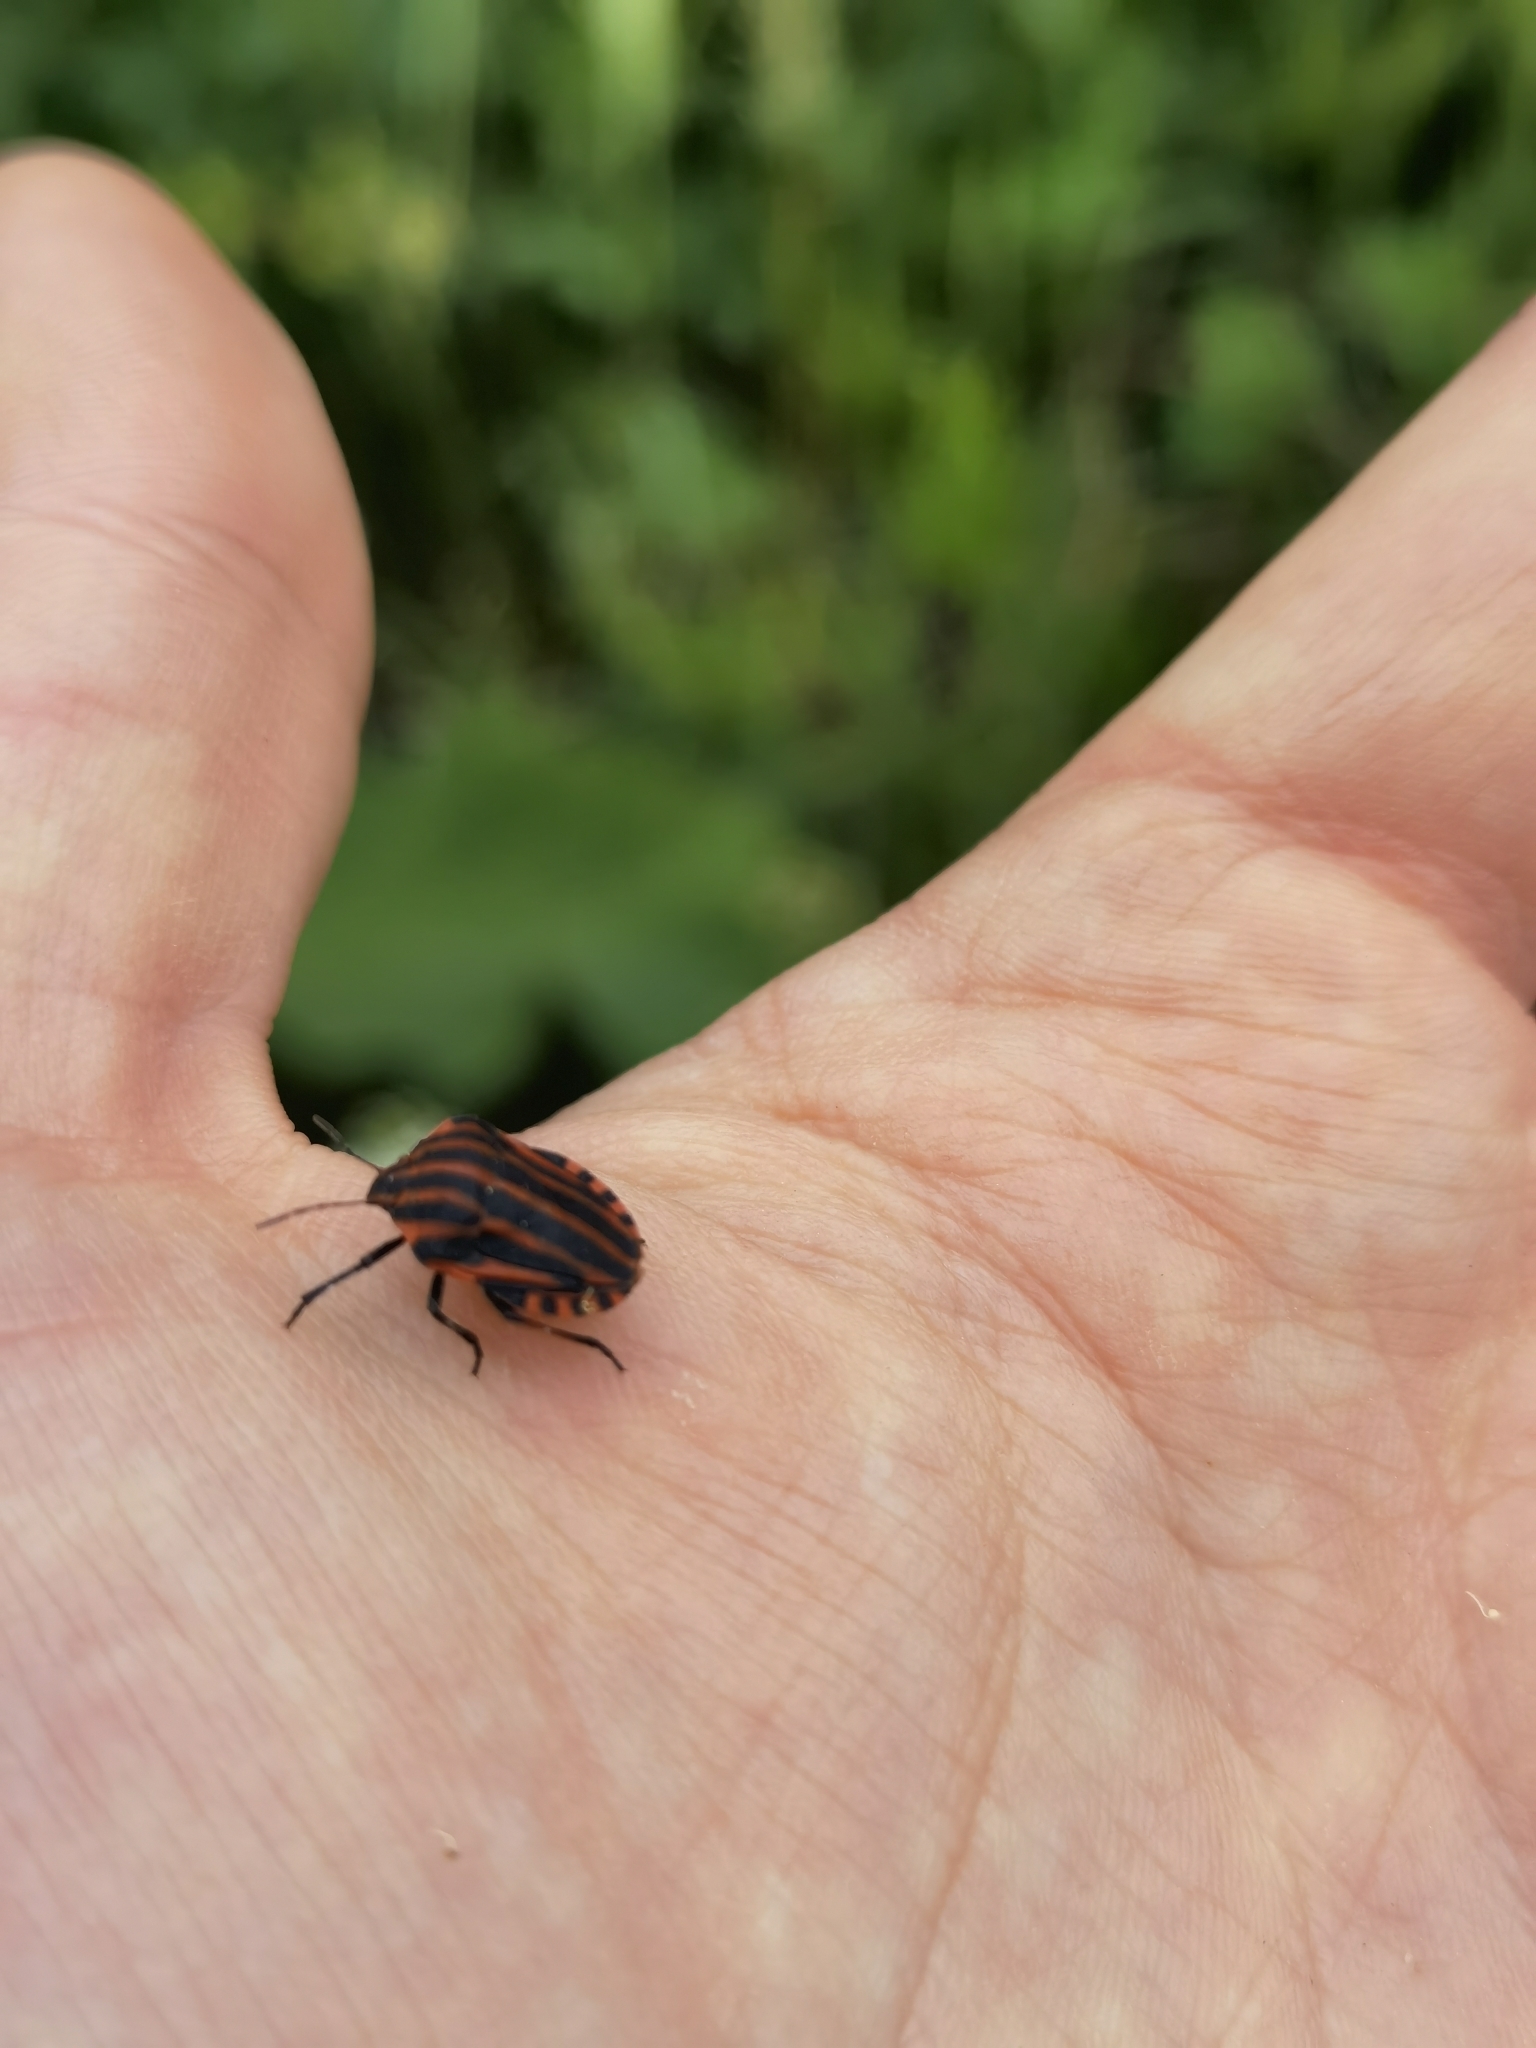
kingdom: Animalia
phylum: Arthropoda
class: Insecta
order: Hemiptera
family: Pentatomidae
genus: Graphosoma
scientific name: Graphosoma italicum
